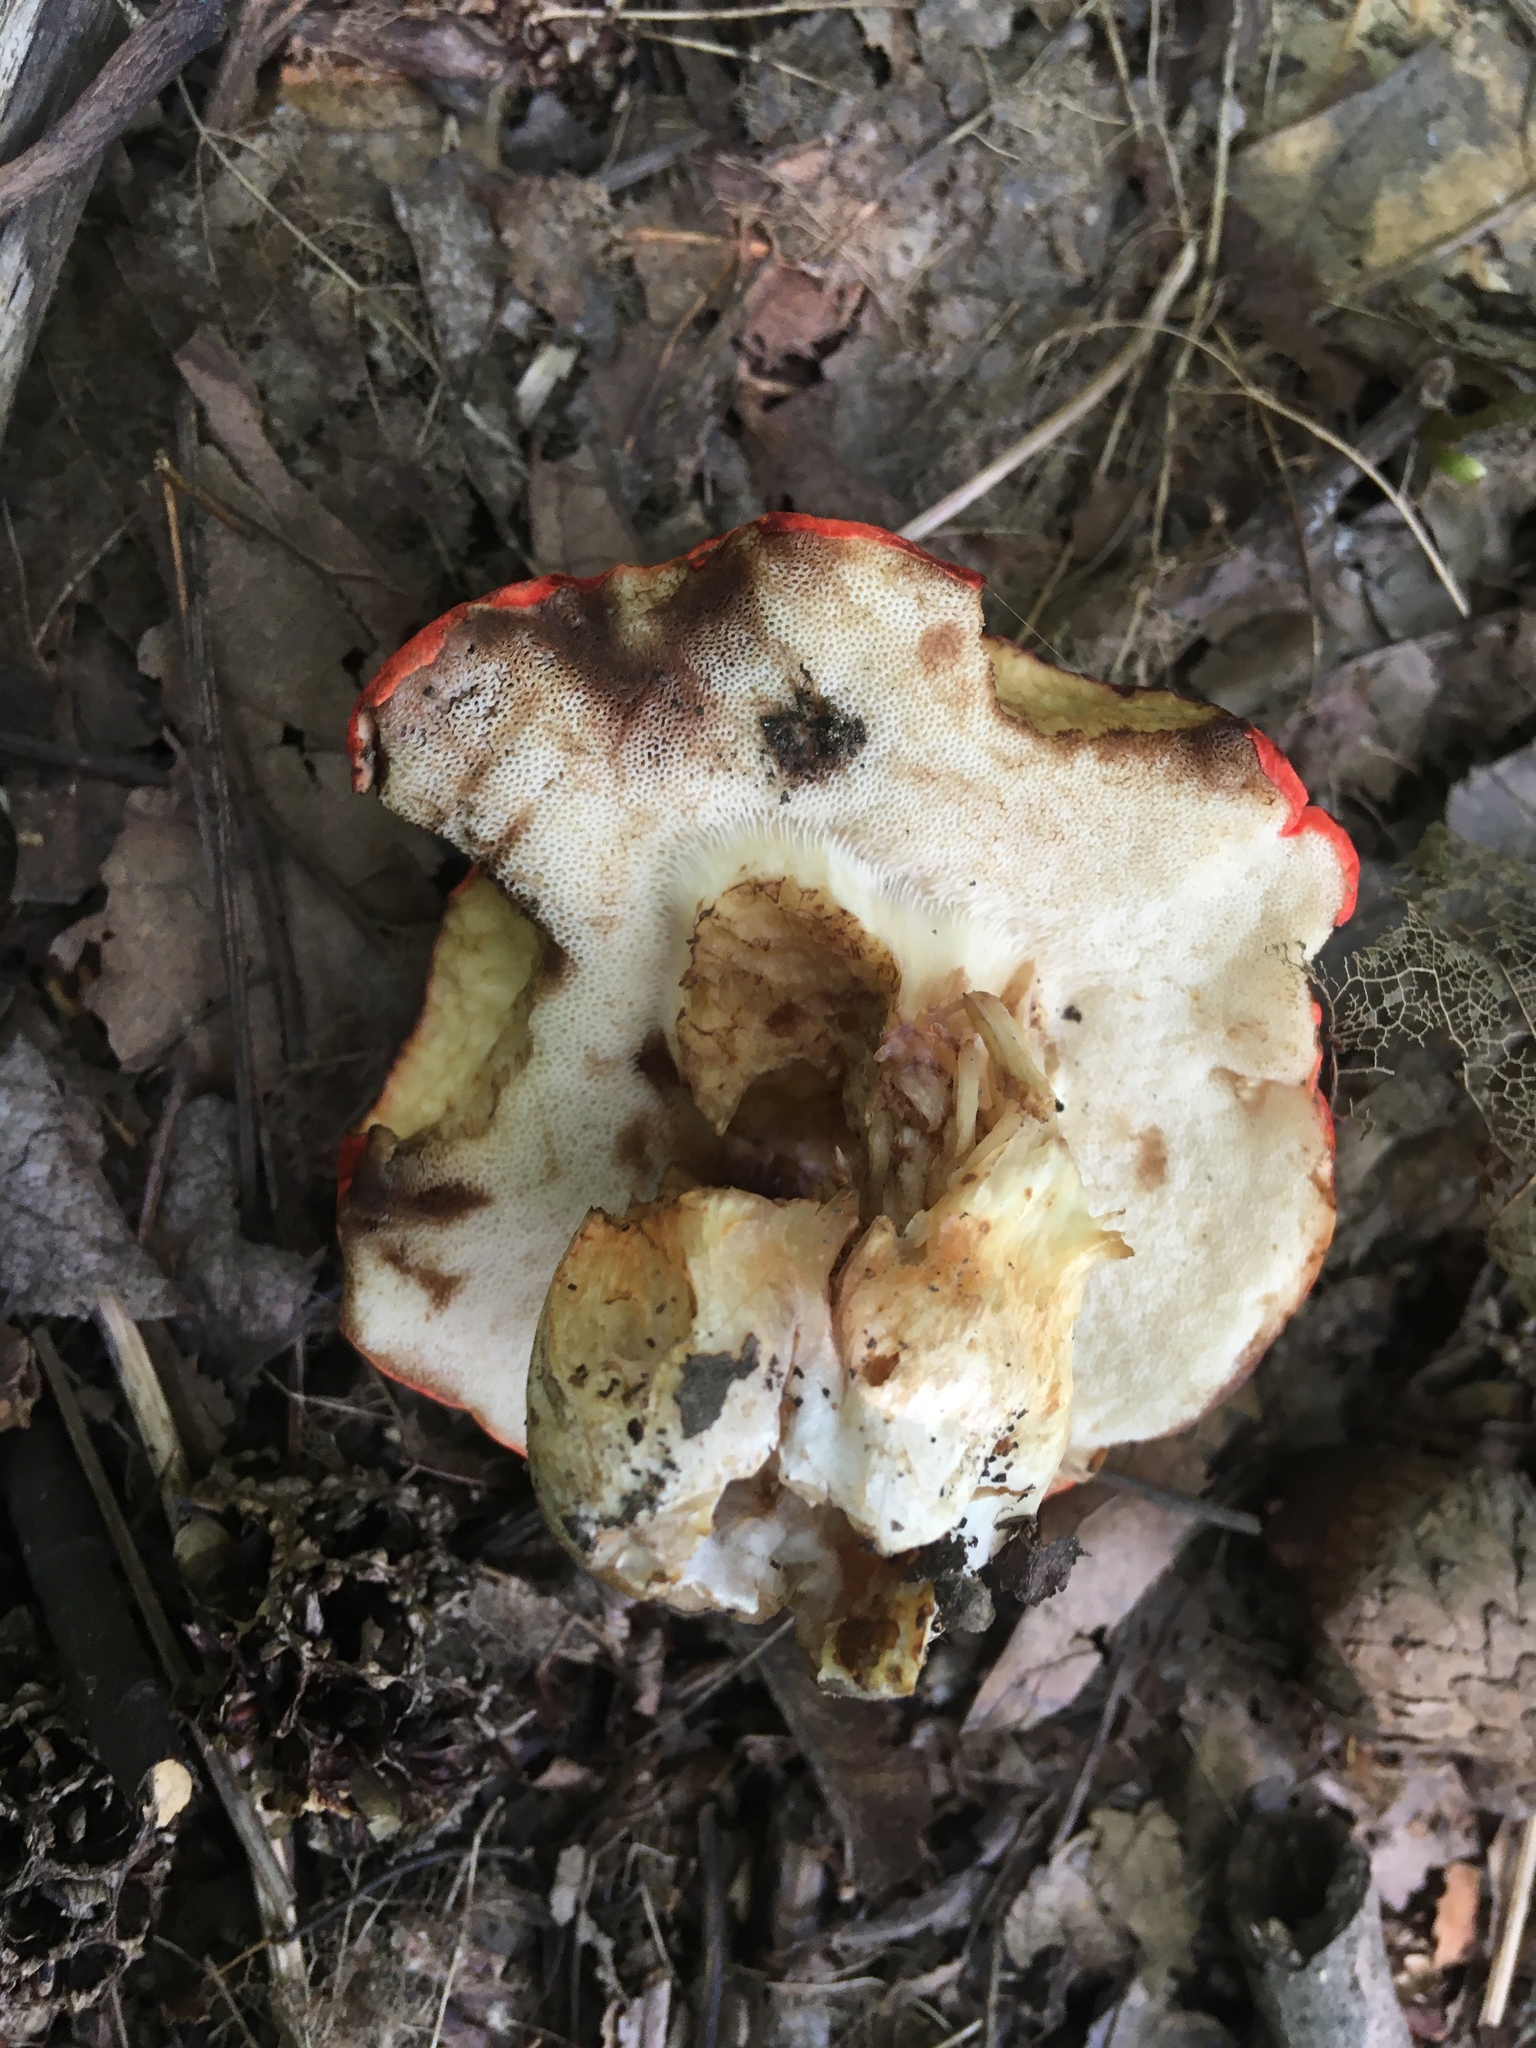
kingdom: Fungi
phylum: Basidiomycota
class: Agaricomycetes
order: Boletales
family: Boletaceae
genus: Tylopilus
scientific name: Tylopilus balloui
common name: Burnt-orange bolete
